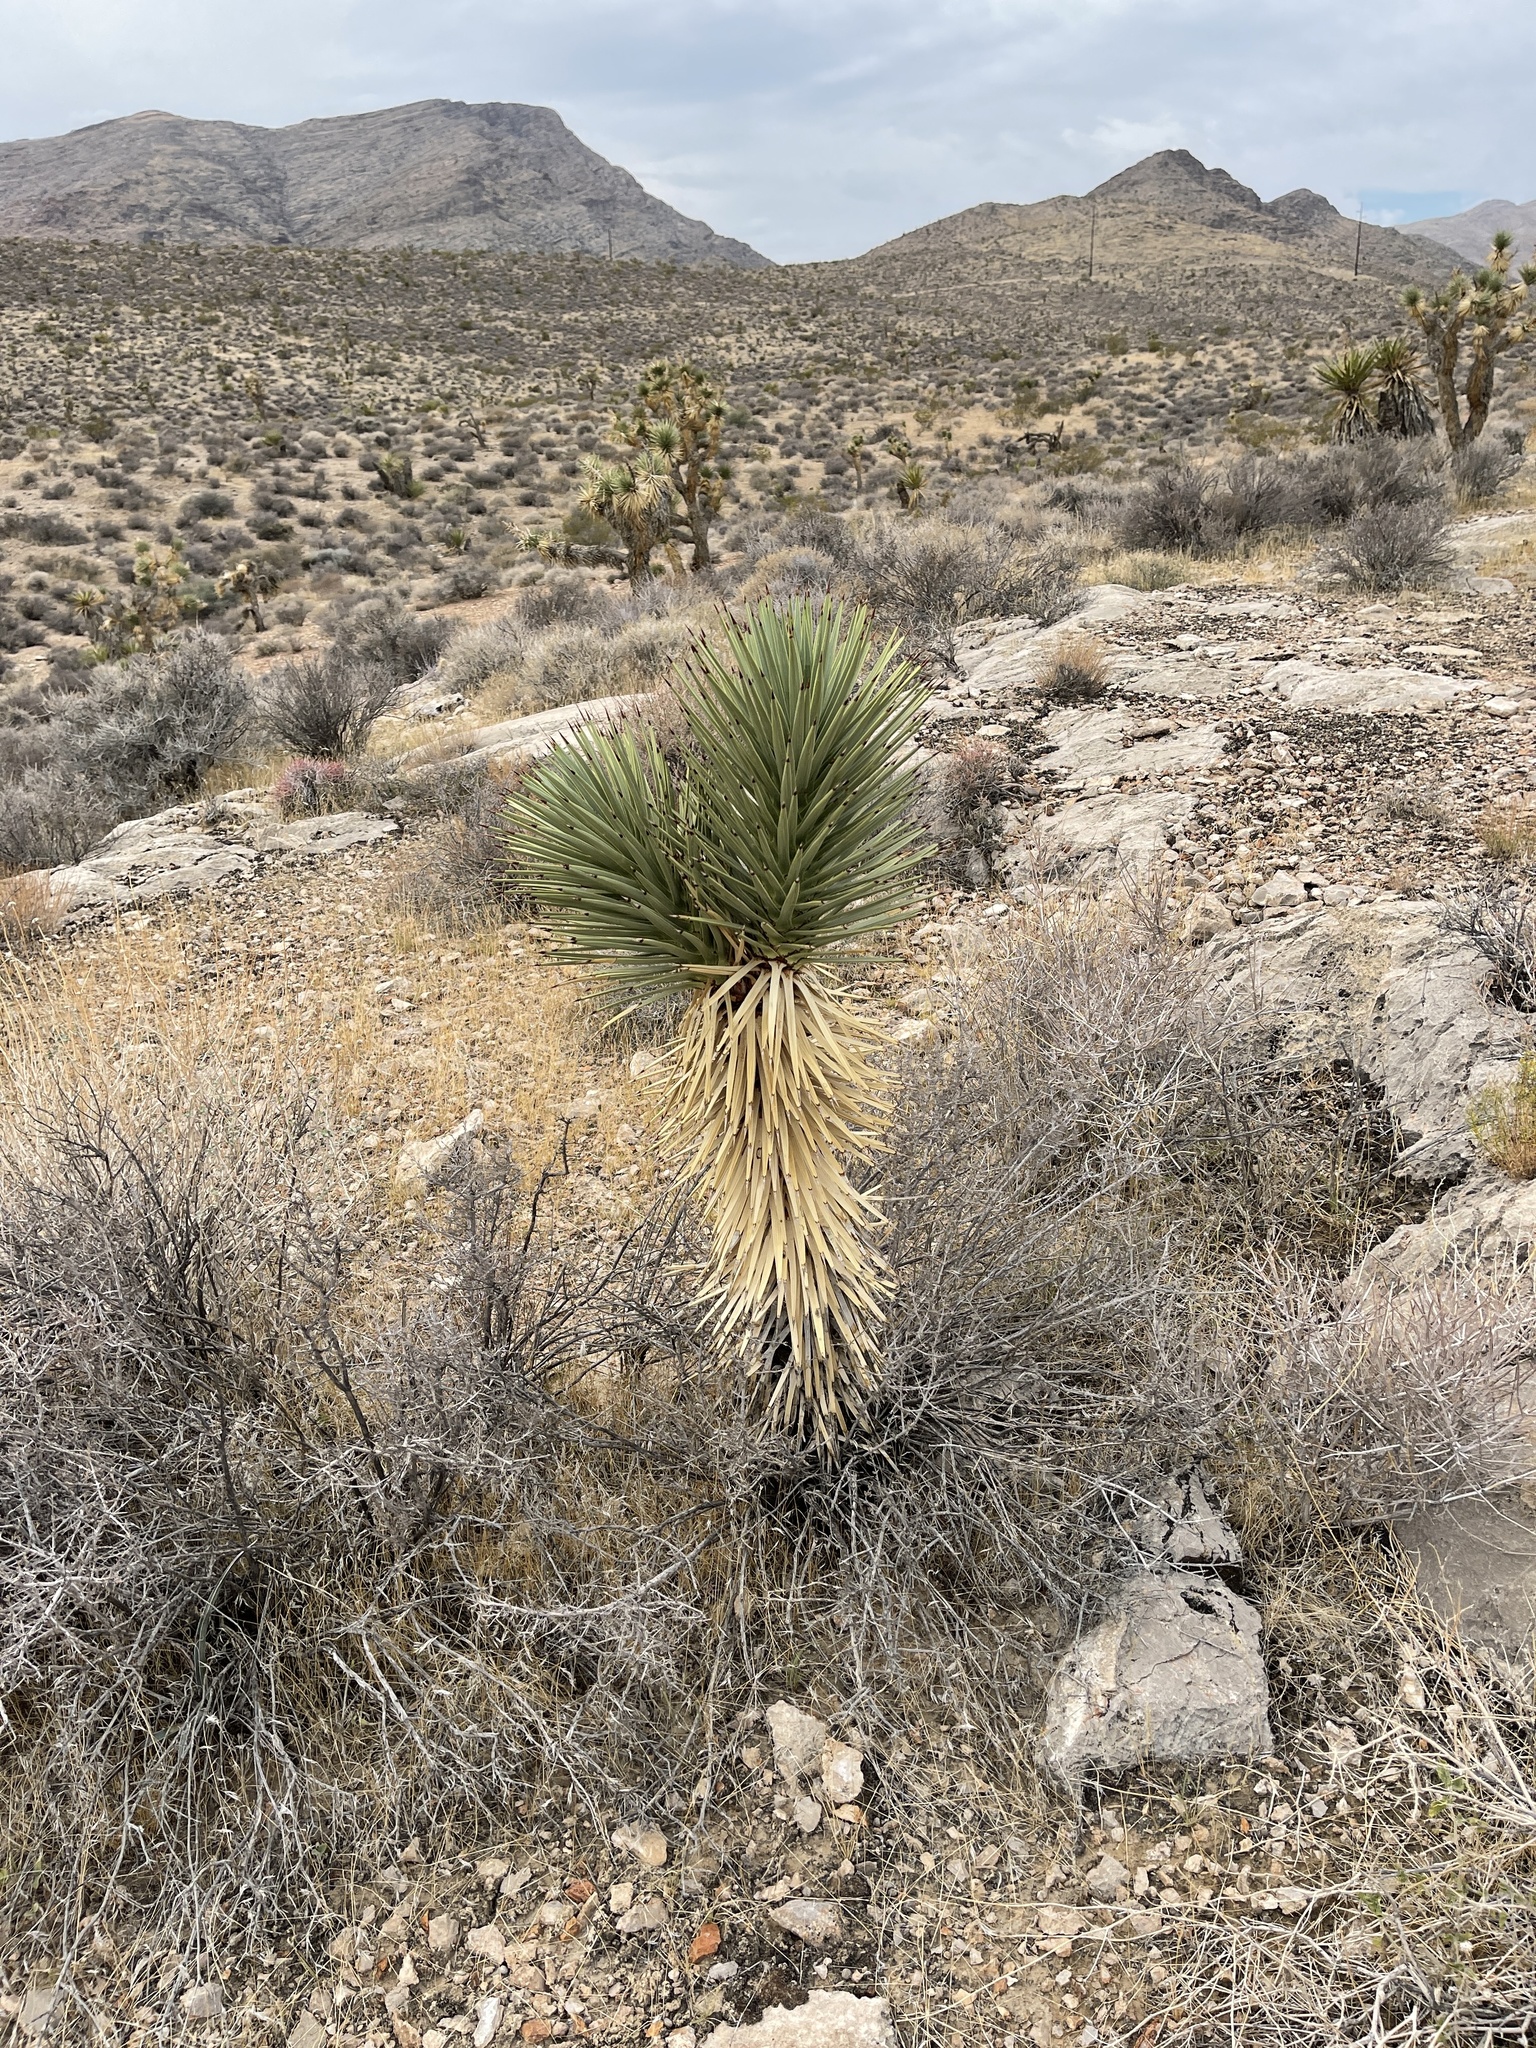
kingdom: Plantae
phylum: Tracheophyta
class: Liliopsida
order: Asparagales
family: Asparagaceae
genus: Yucca
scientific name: Yucca brevifolia
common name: Joshua tree
